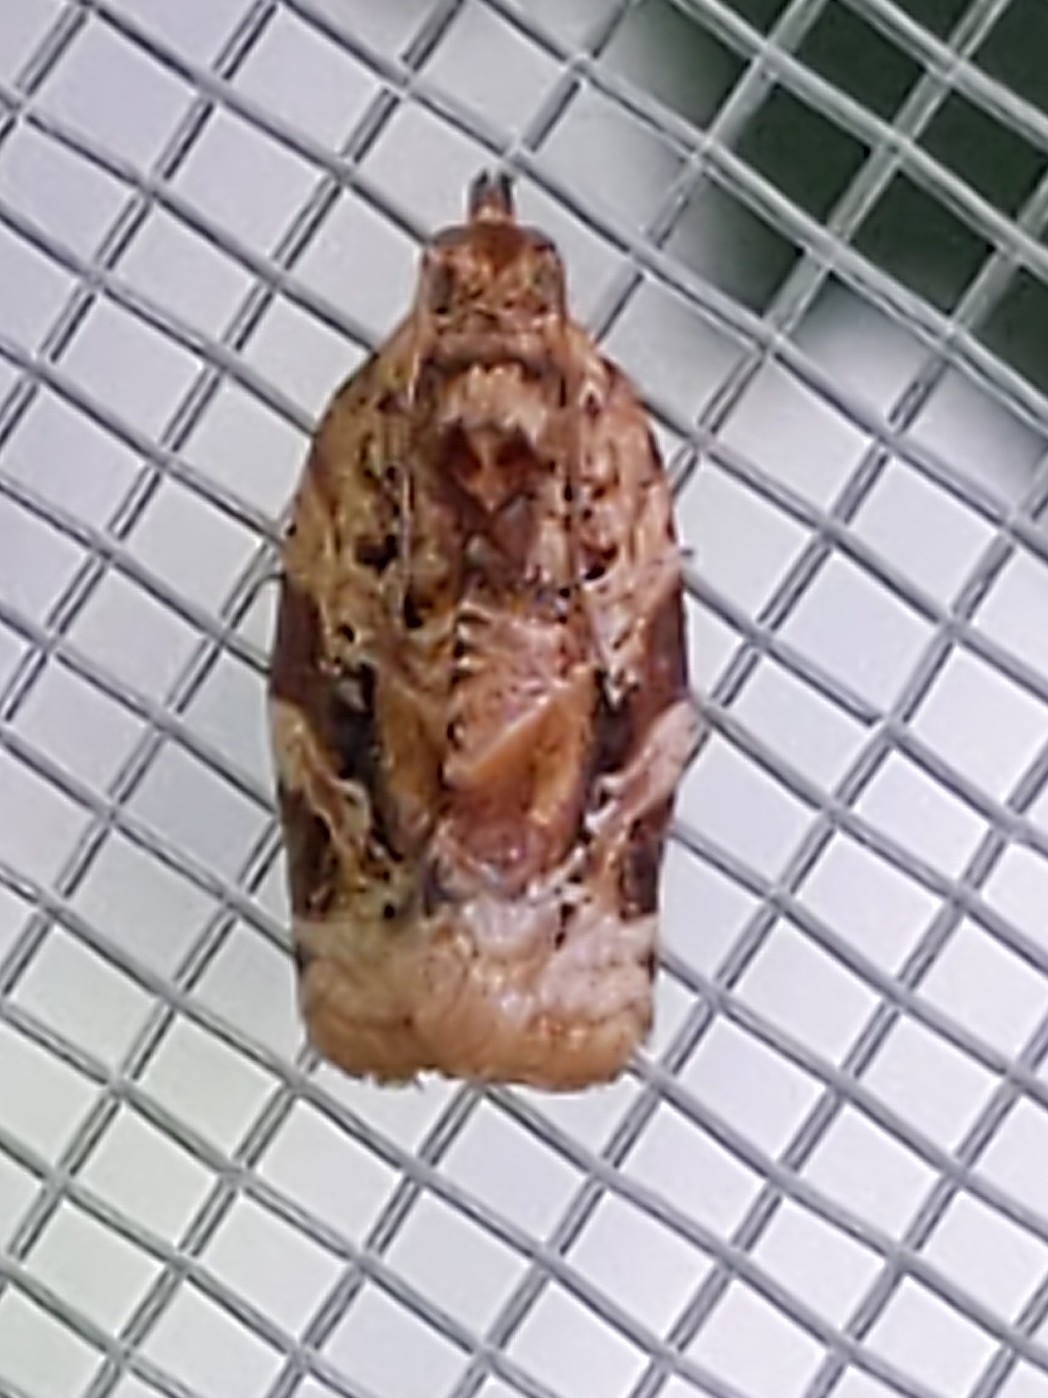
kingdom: Animalia
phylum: Arthropoda
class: Insecta
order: Lepidoptera
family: Tortricidae
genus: Argyrotaenia
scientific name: Argyrotaenia velutinana
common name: Red-banded leafroller moth
